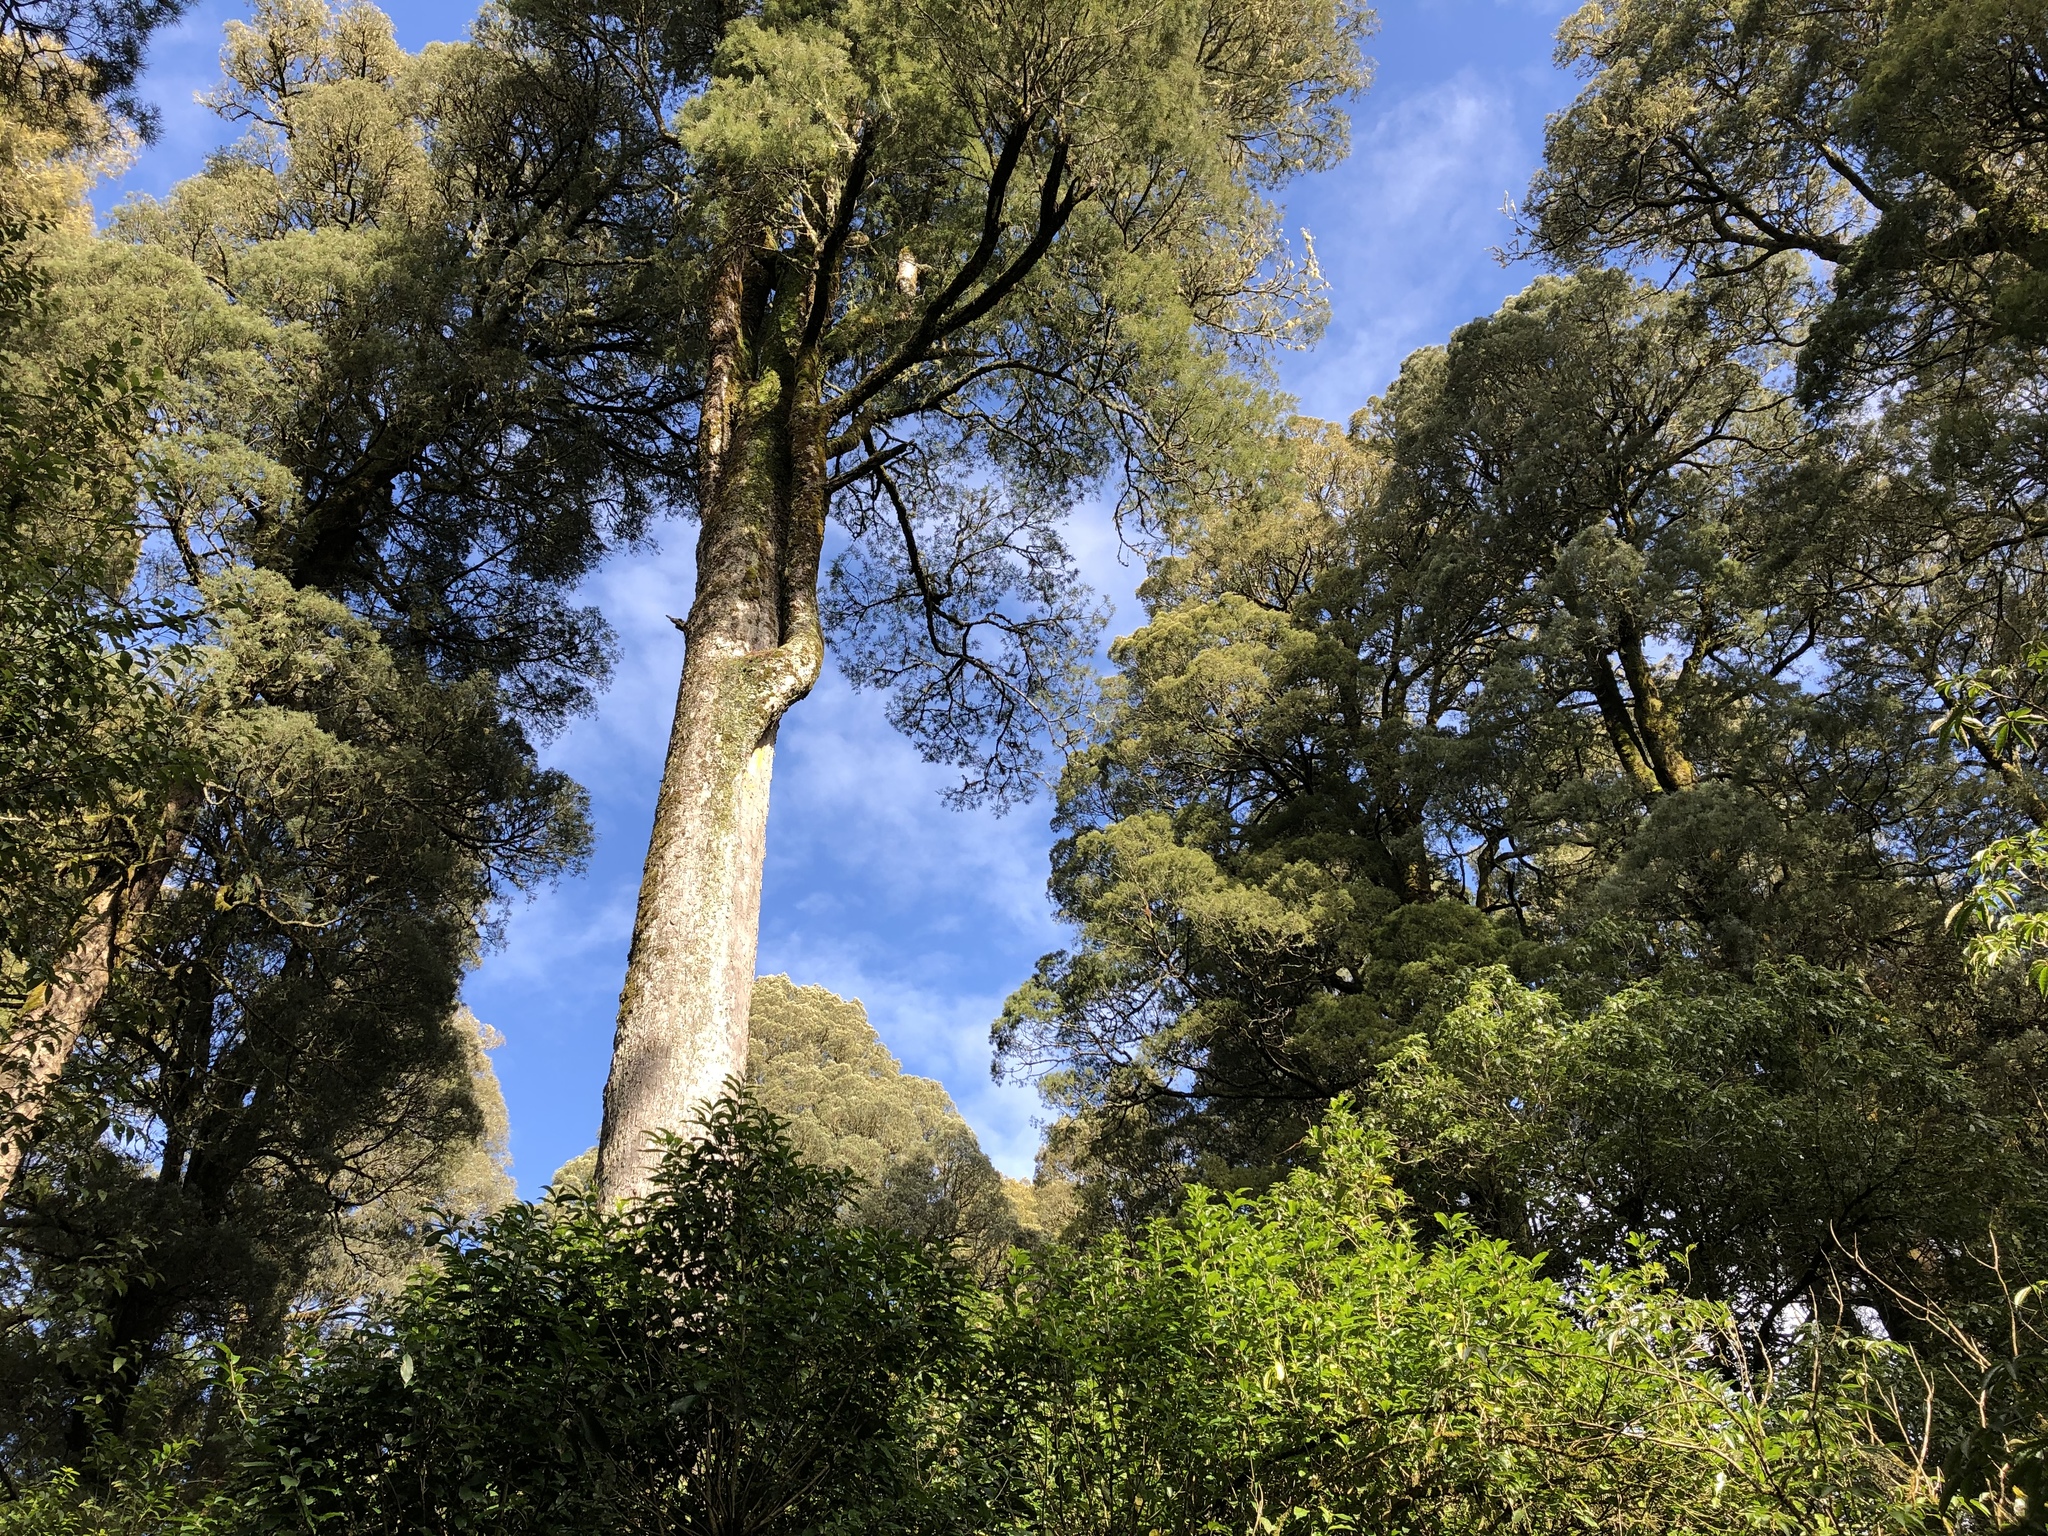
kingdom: Plantae
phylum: Tracheophyta
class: Pinopsida
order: Pinales
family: Podocarpaceae
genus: Dacrycarpus
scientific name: Dacrycarpus dacrydioides
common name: White pine
